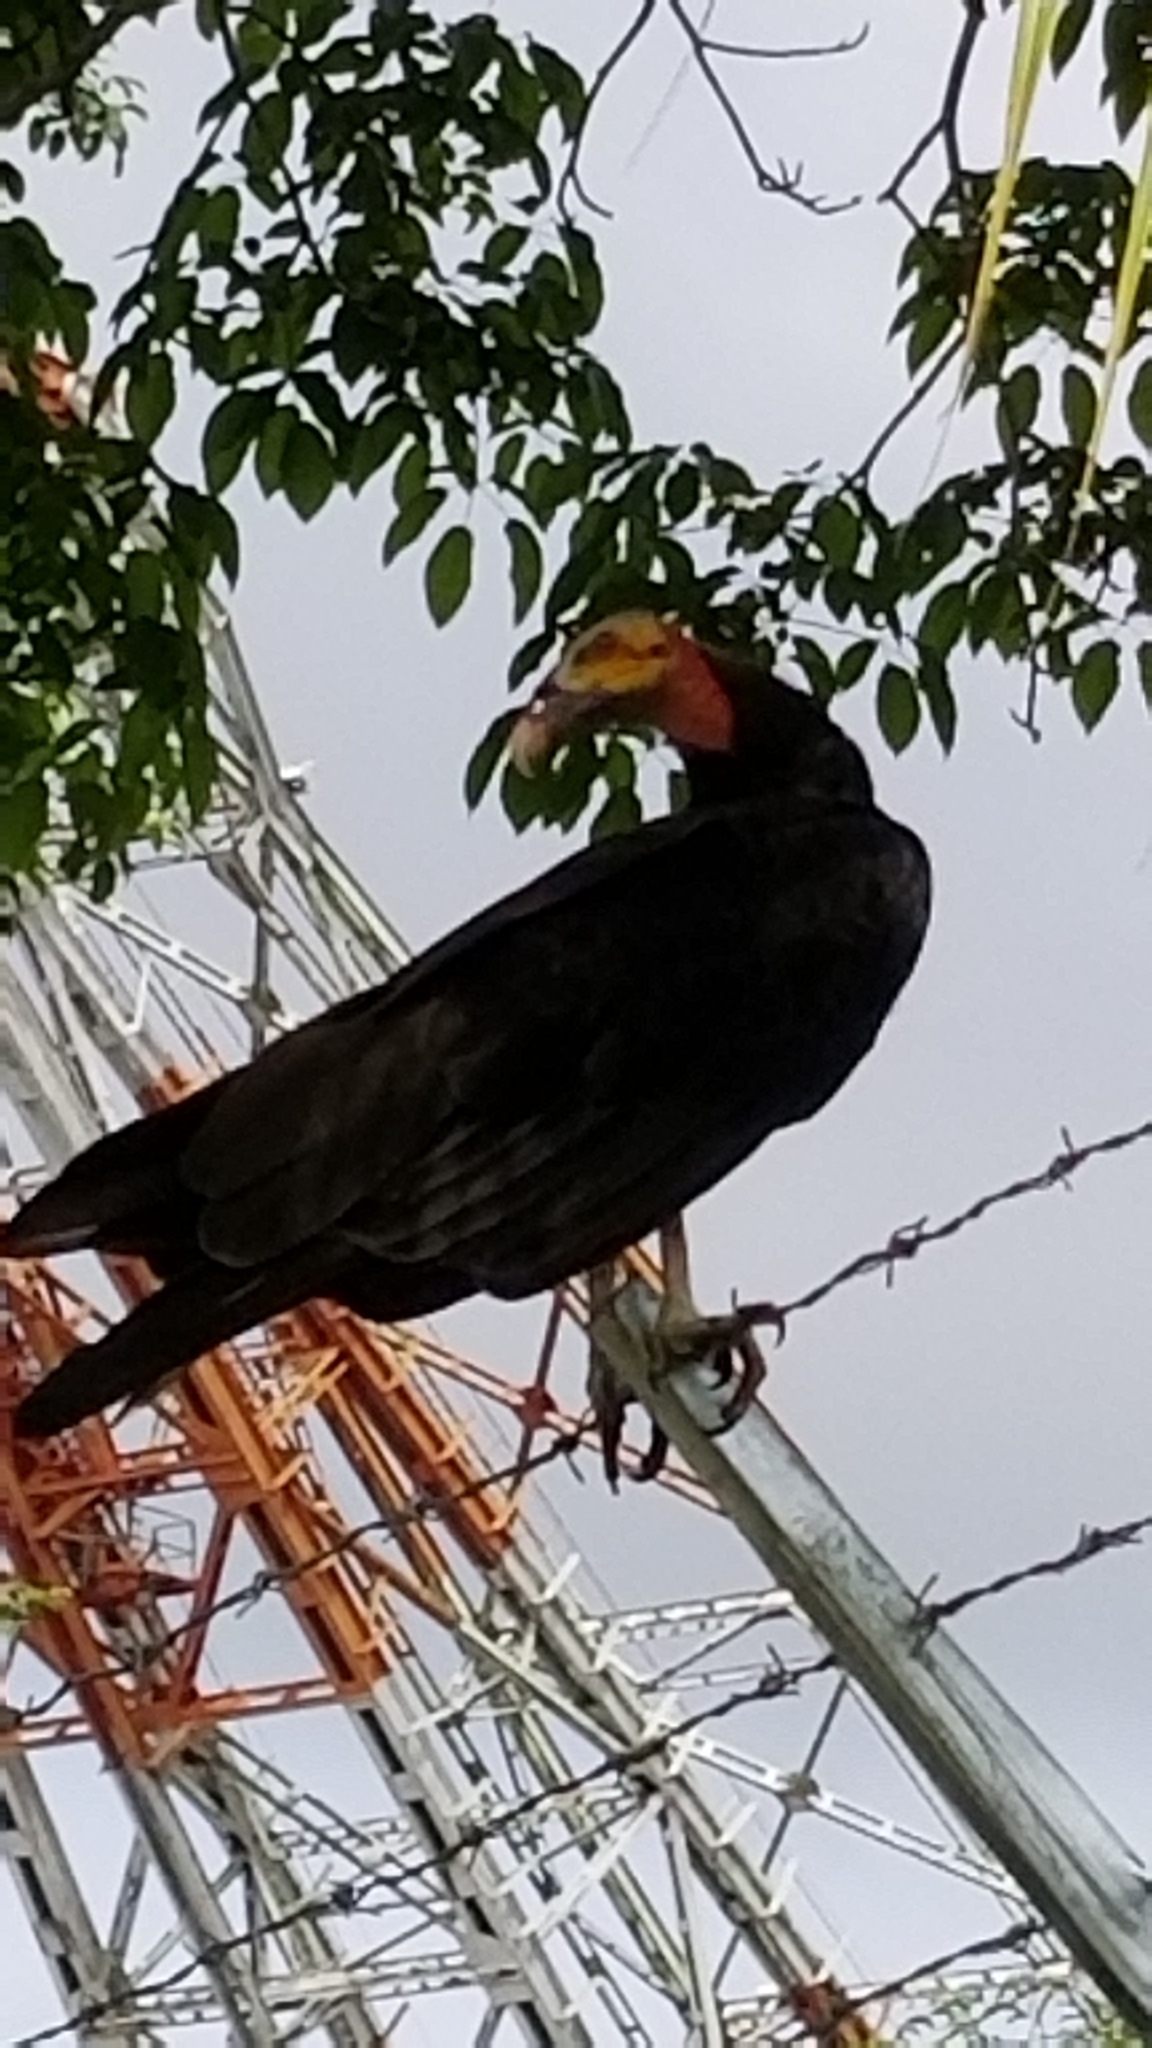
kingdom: Animalia
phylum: Chordata
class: Aves
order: Accipitriformes
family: Cathartidae
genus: Cathartes
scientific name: Cathartes burrovianus
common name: Lesser yellow-headed vulture
